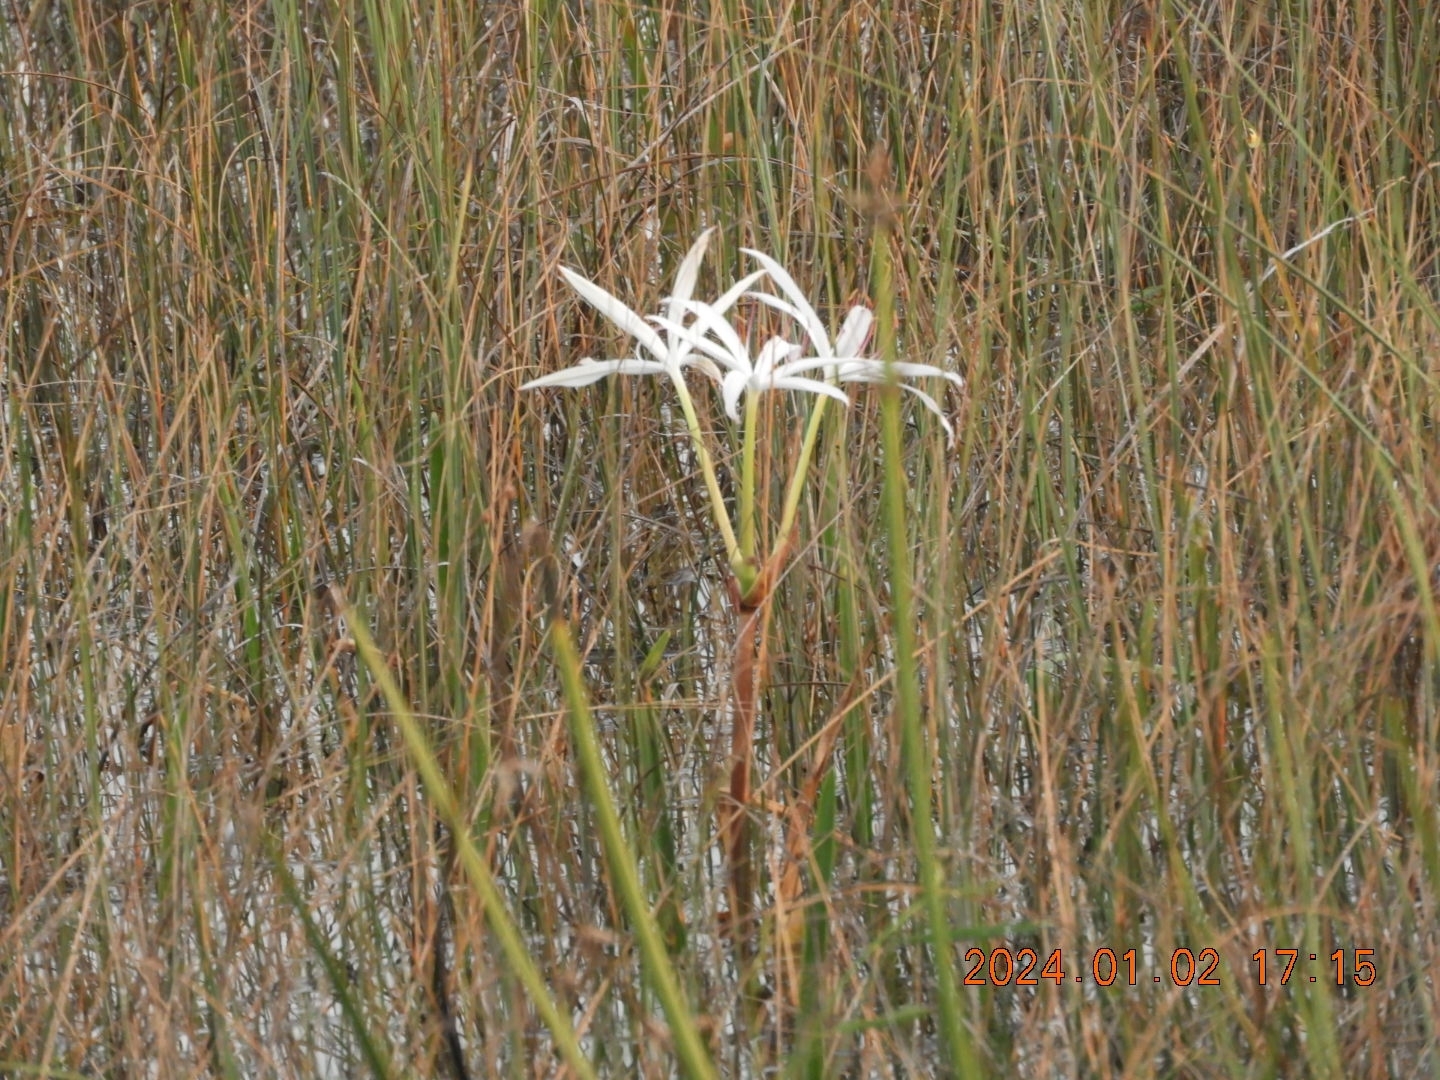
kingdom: Plantae
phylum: Tracheophyta
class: Liliopsida
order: Asparagales
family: Amaryllidaceae
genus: Crinum
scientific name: Crinum americanum
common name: Florida swamp-lily
